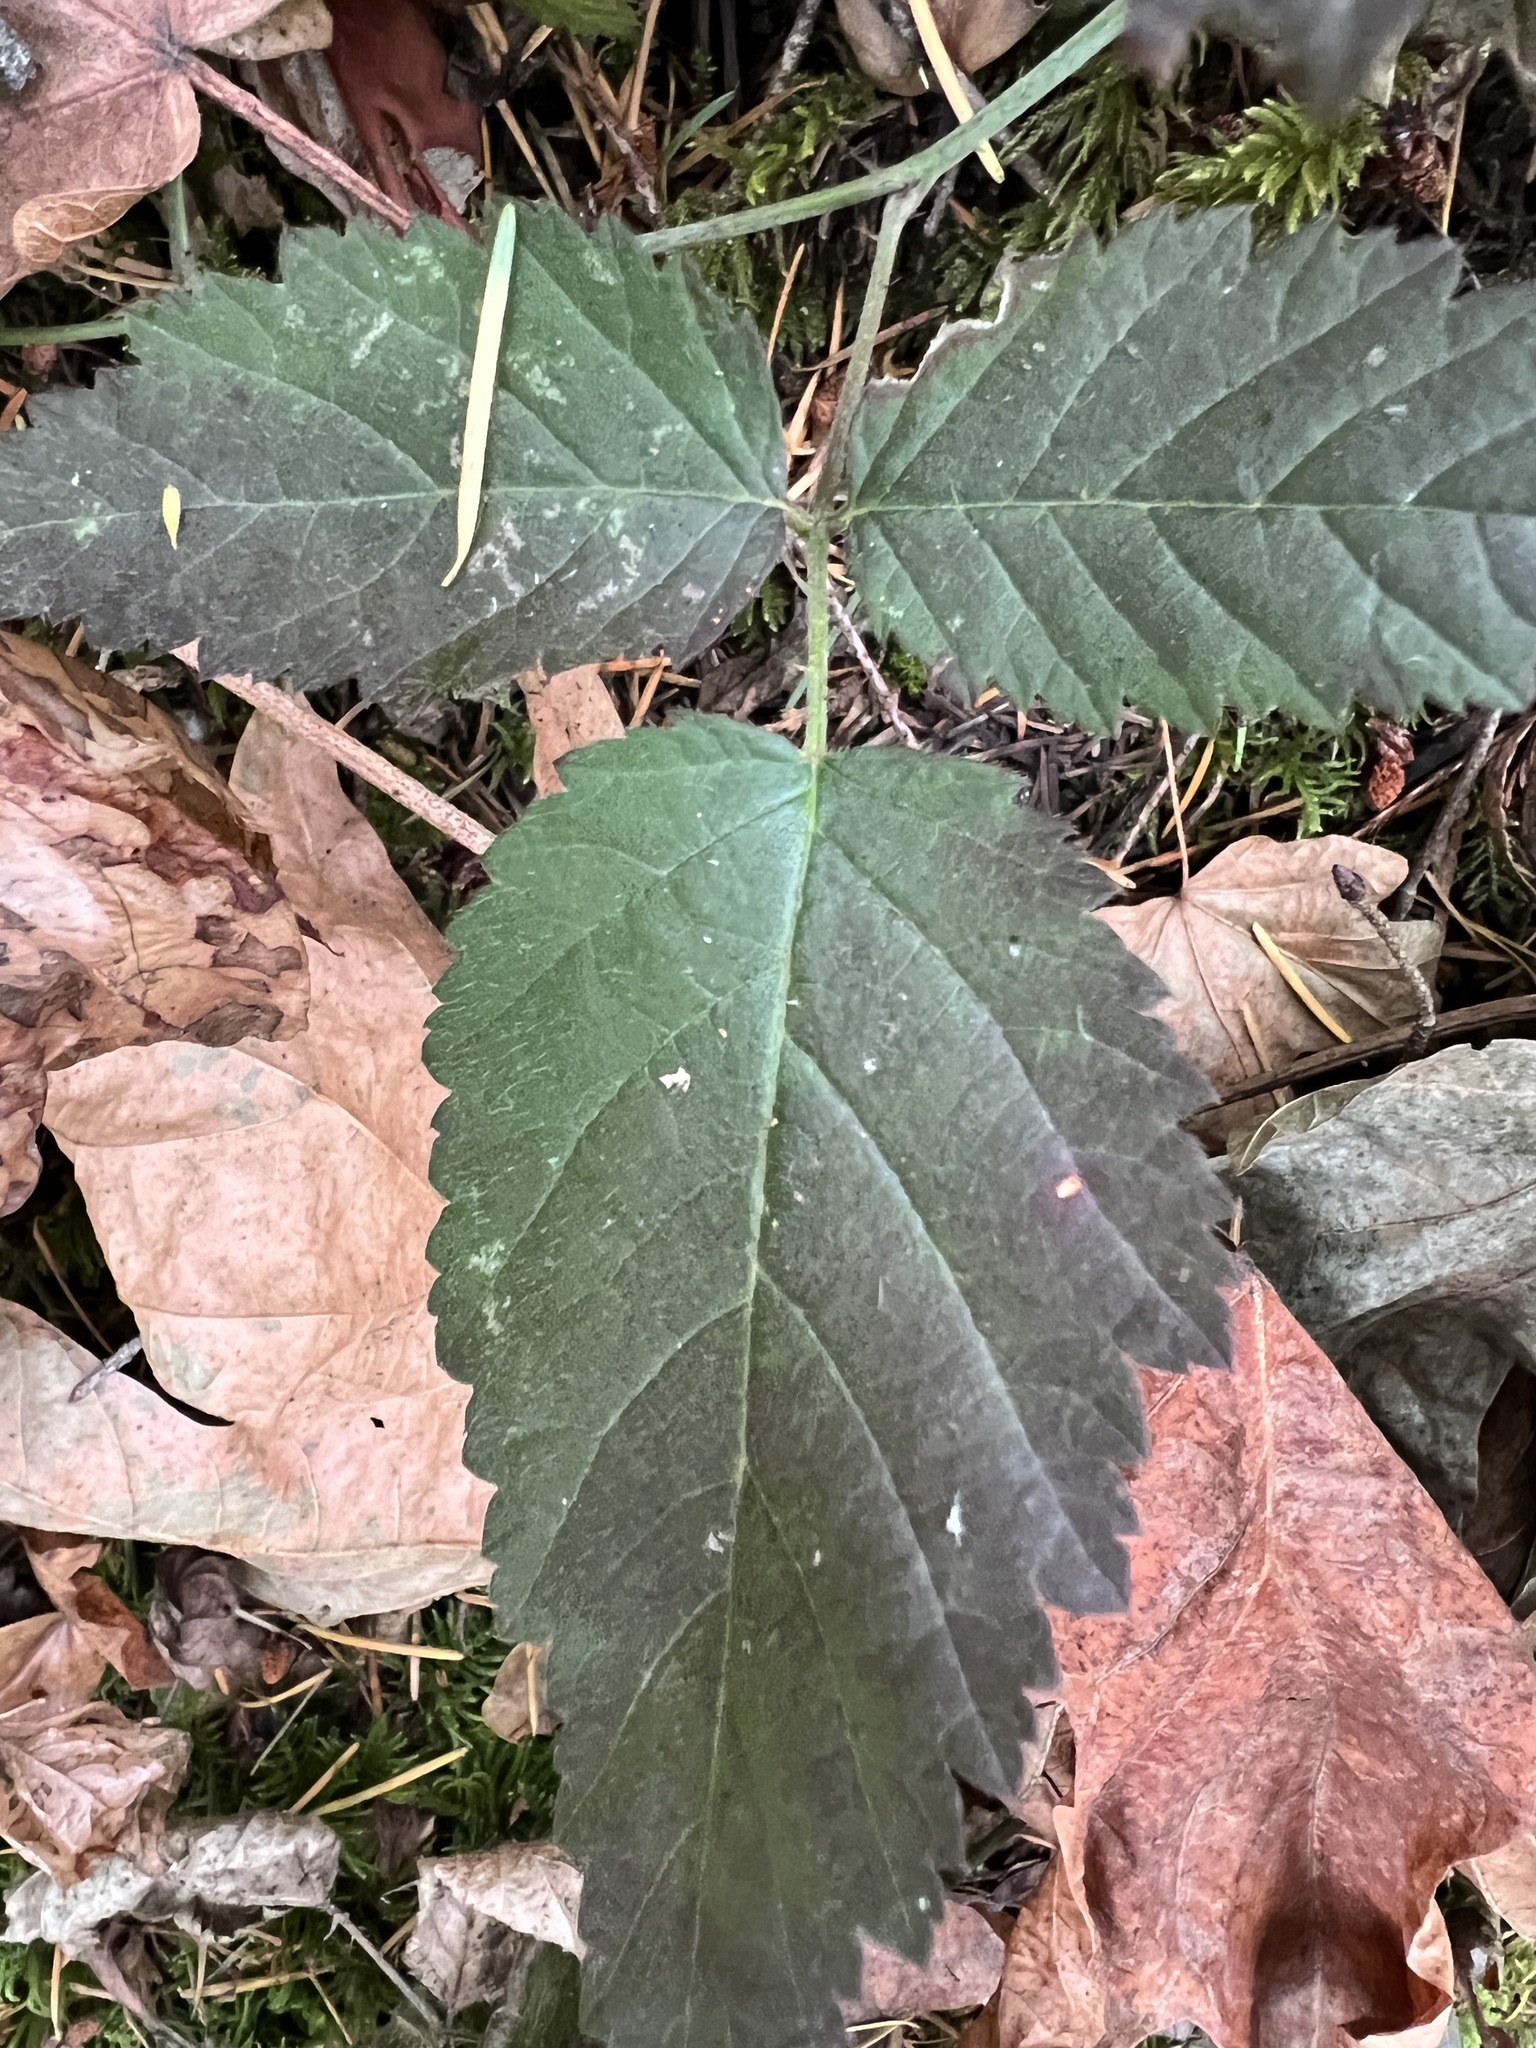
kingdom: Plantae
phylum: Tracheophyta
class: Magnoliopsida
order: Rosales
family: Rosaceae
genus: Rubus
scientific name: Rubus ursinus
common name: Pacific blackberry
